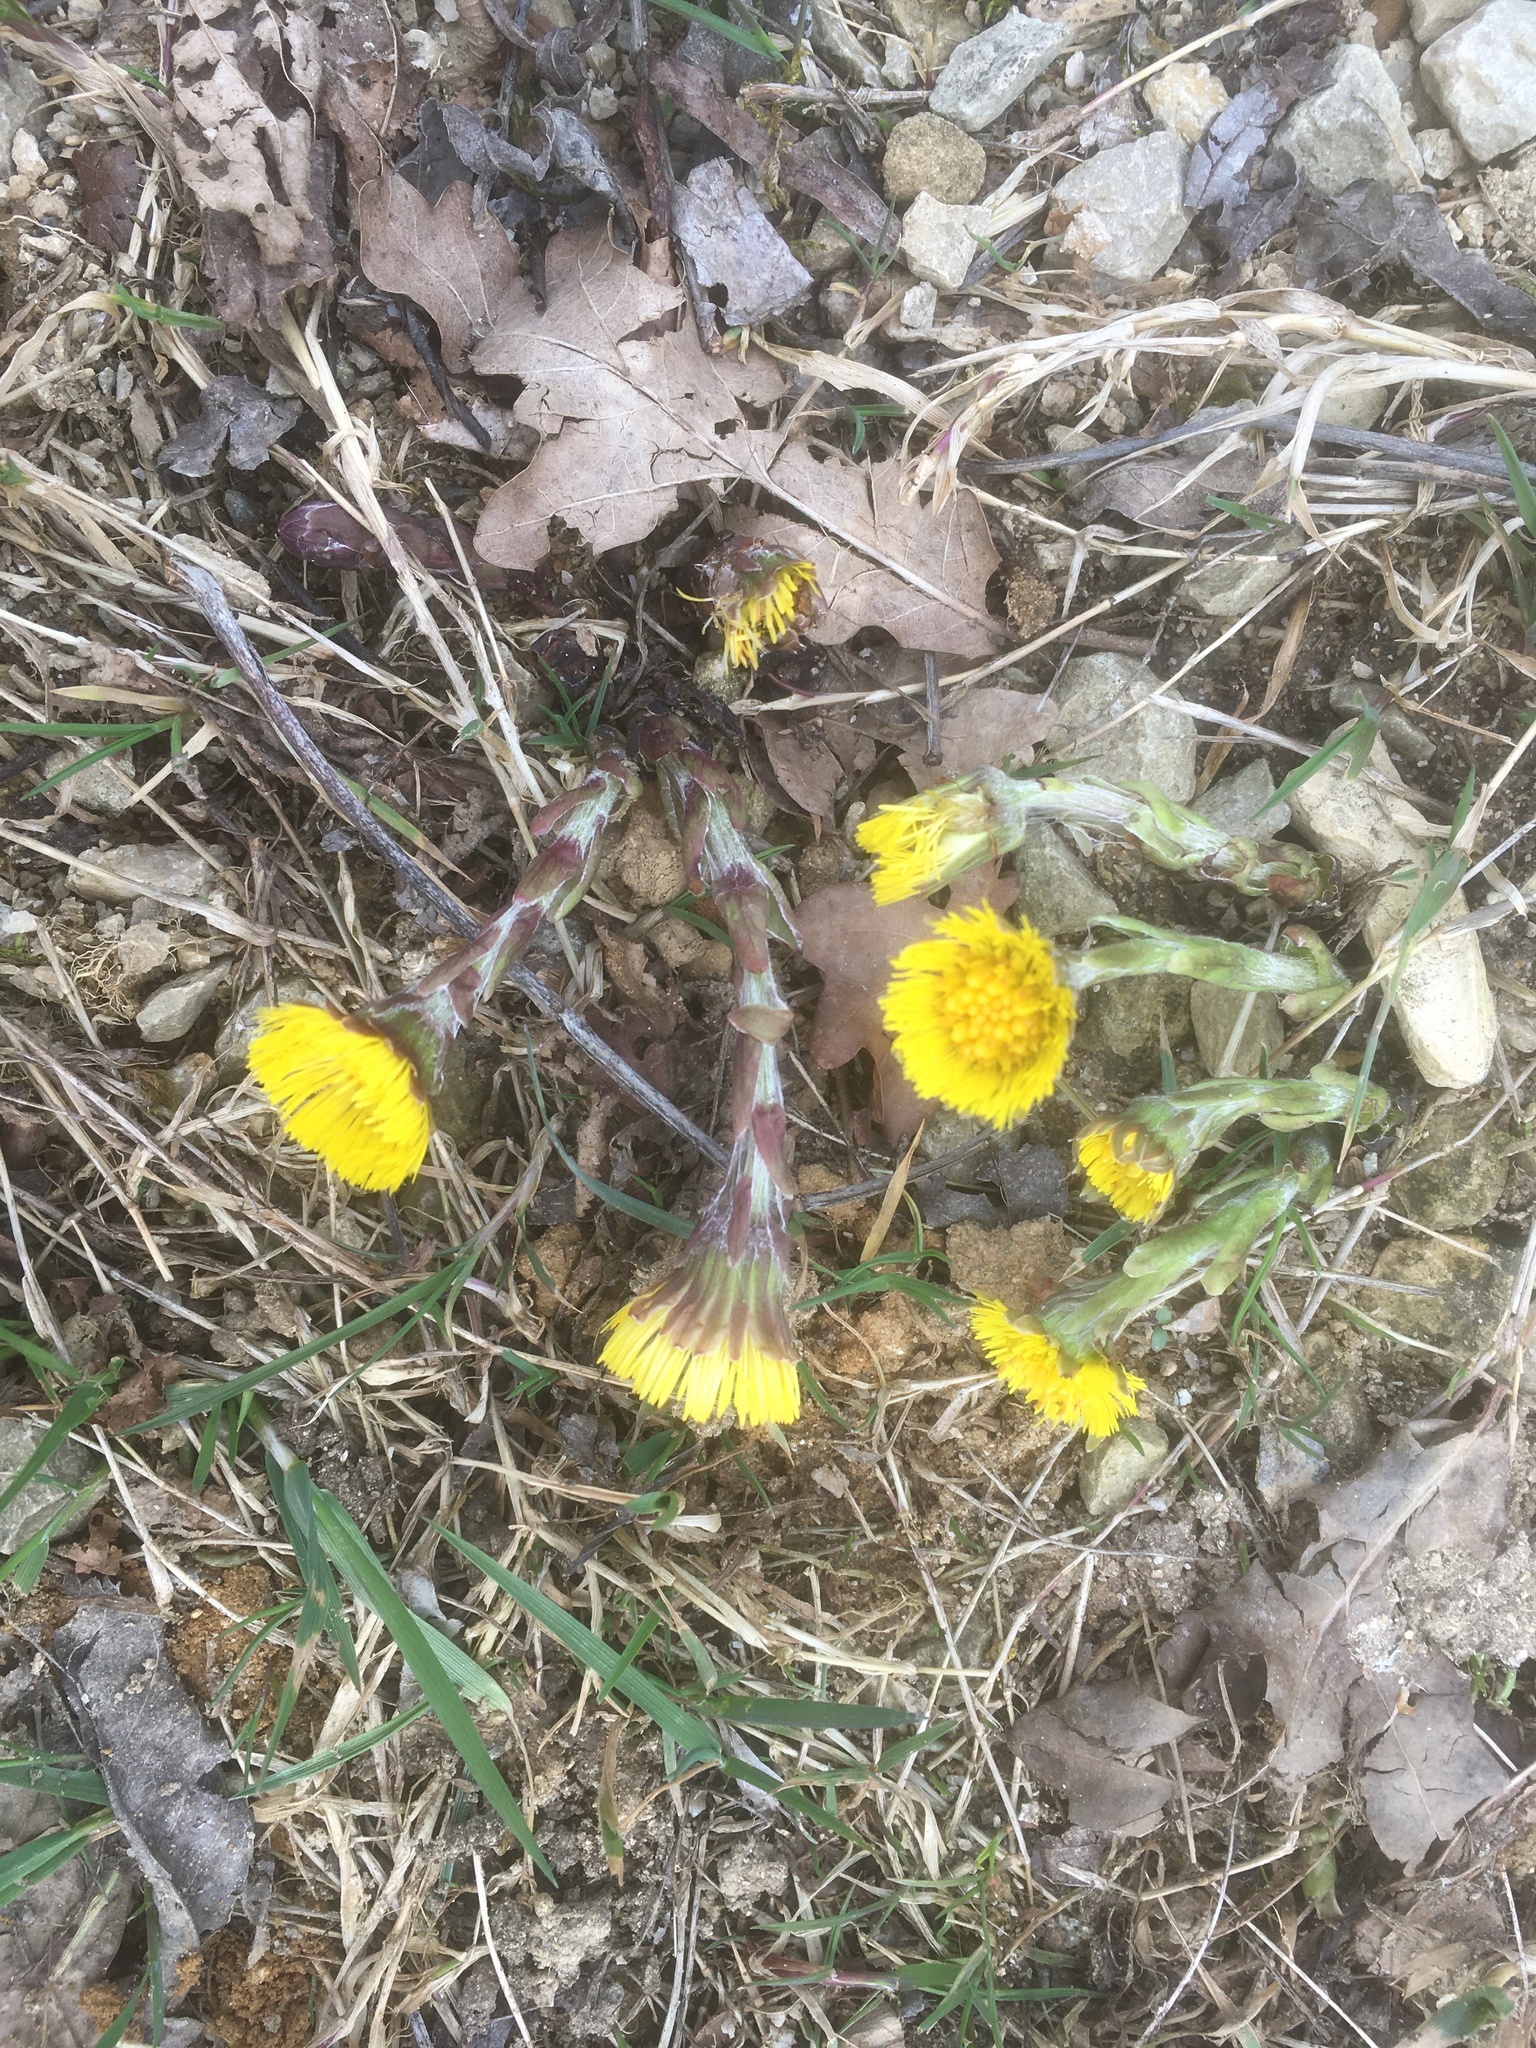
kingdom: Plantae
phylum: Tracheophyta
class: Magnoliopsida
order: Asterales
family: Asteraceae
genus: Tussilago
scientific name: Tussilago farfara
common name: Coltsfoot
